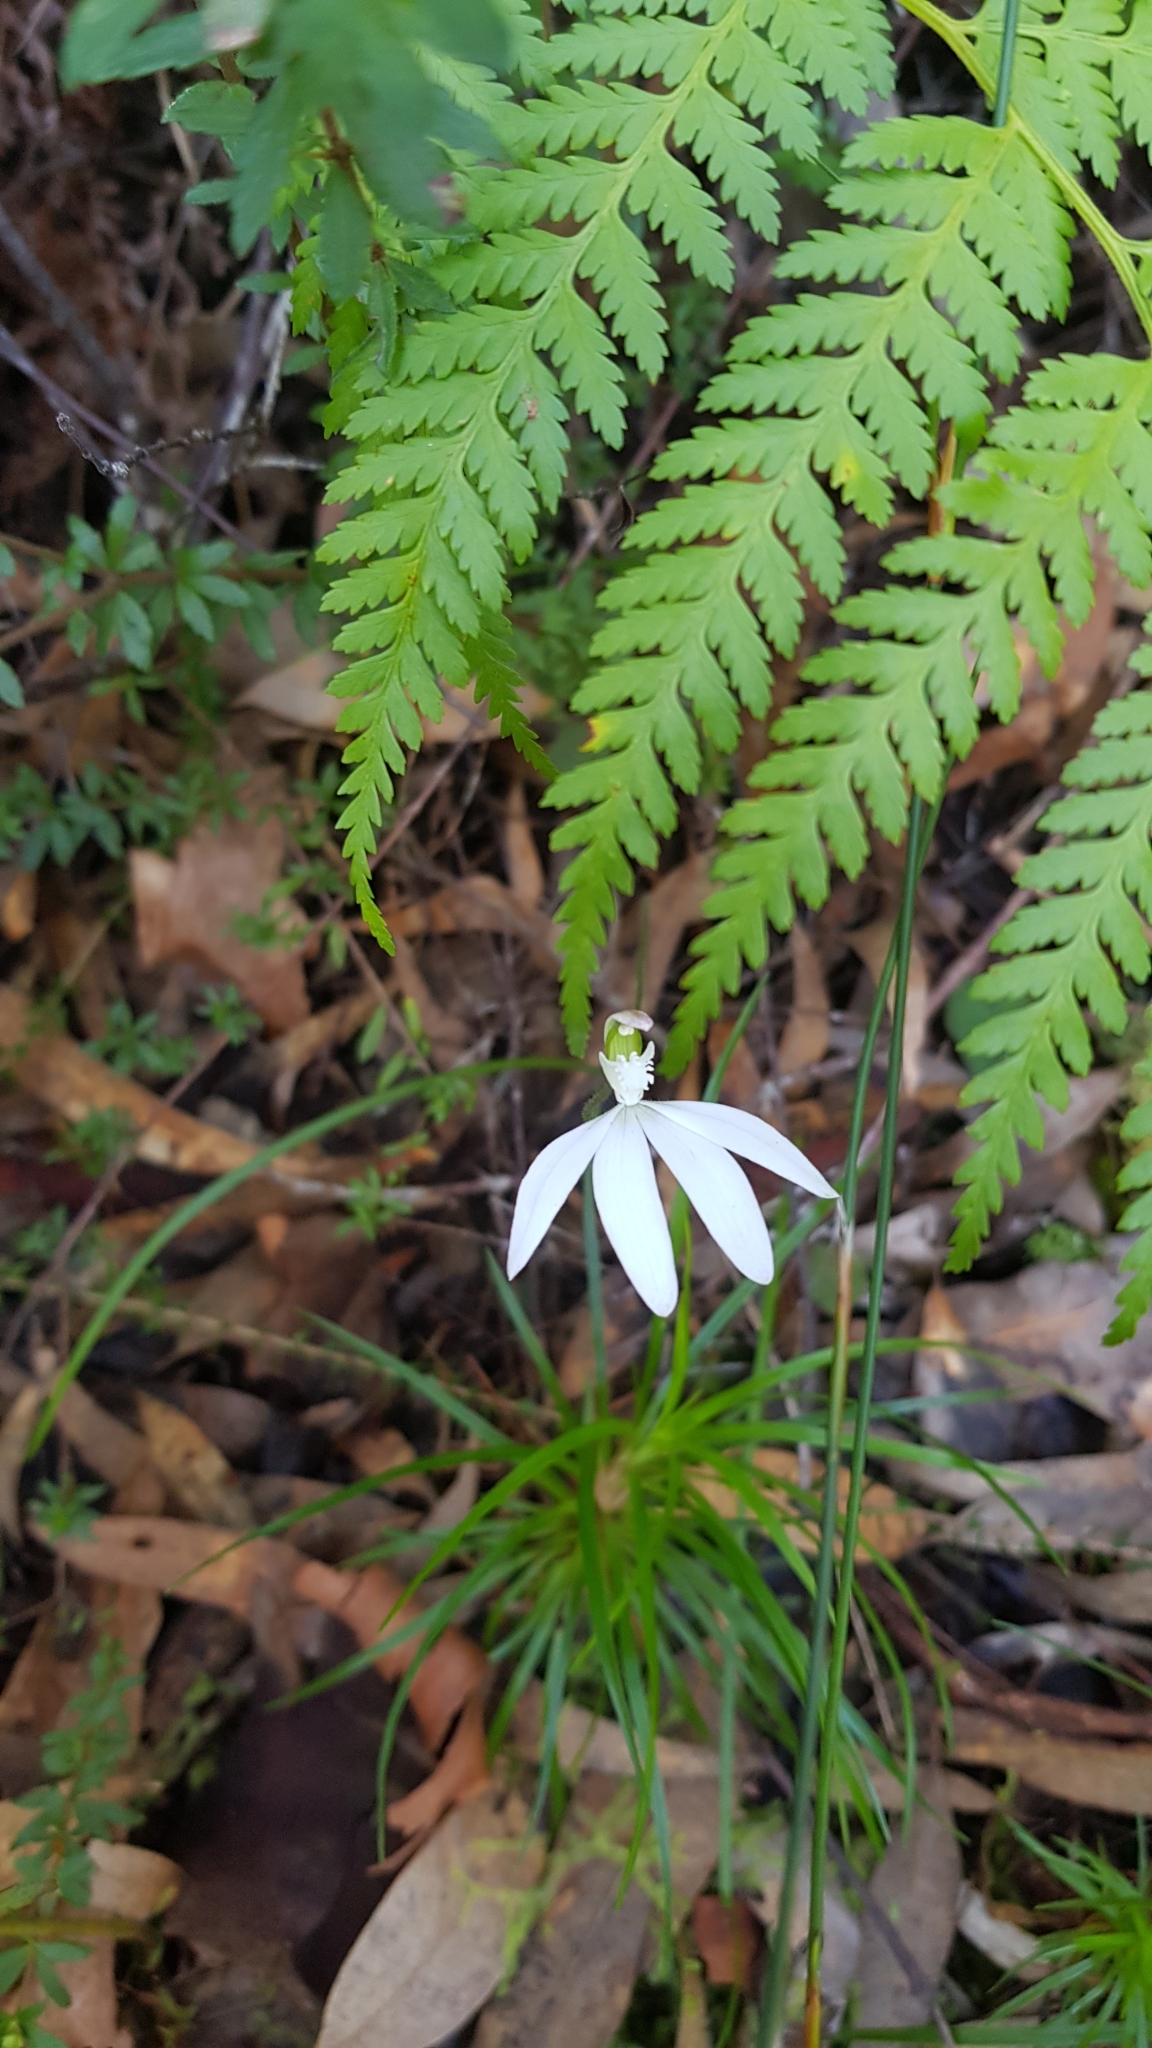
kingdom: Plantae
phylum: Tracheophyta
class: Liliopsida
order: Asparagales
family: Orchidaceae
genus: Caladenia
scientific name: Caladenia catenata
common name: White caladenia
